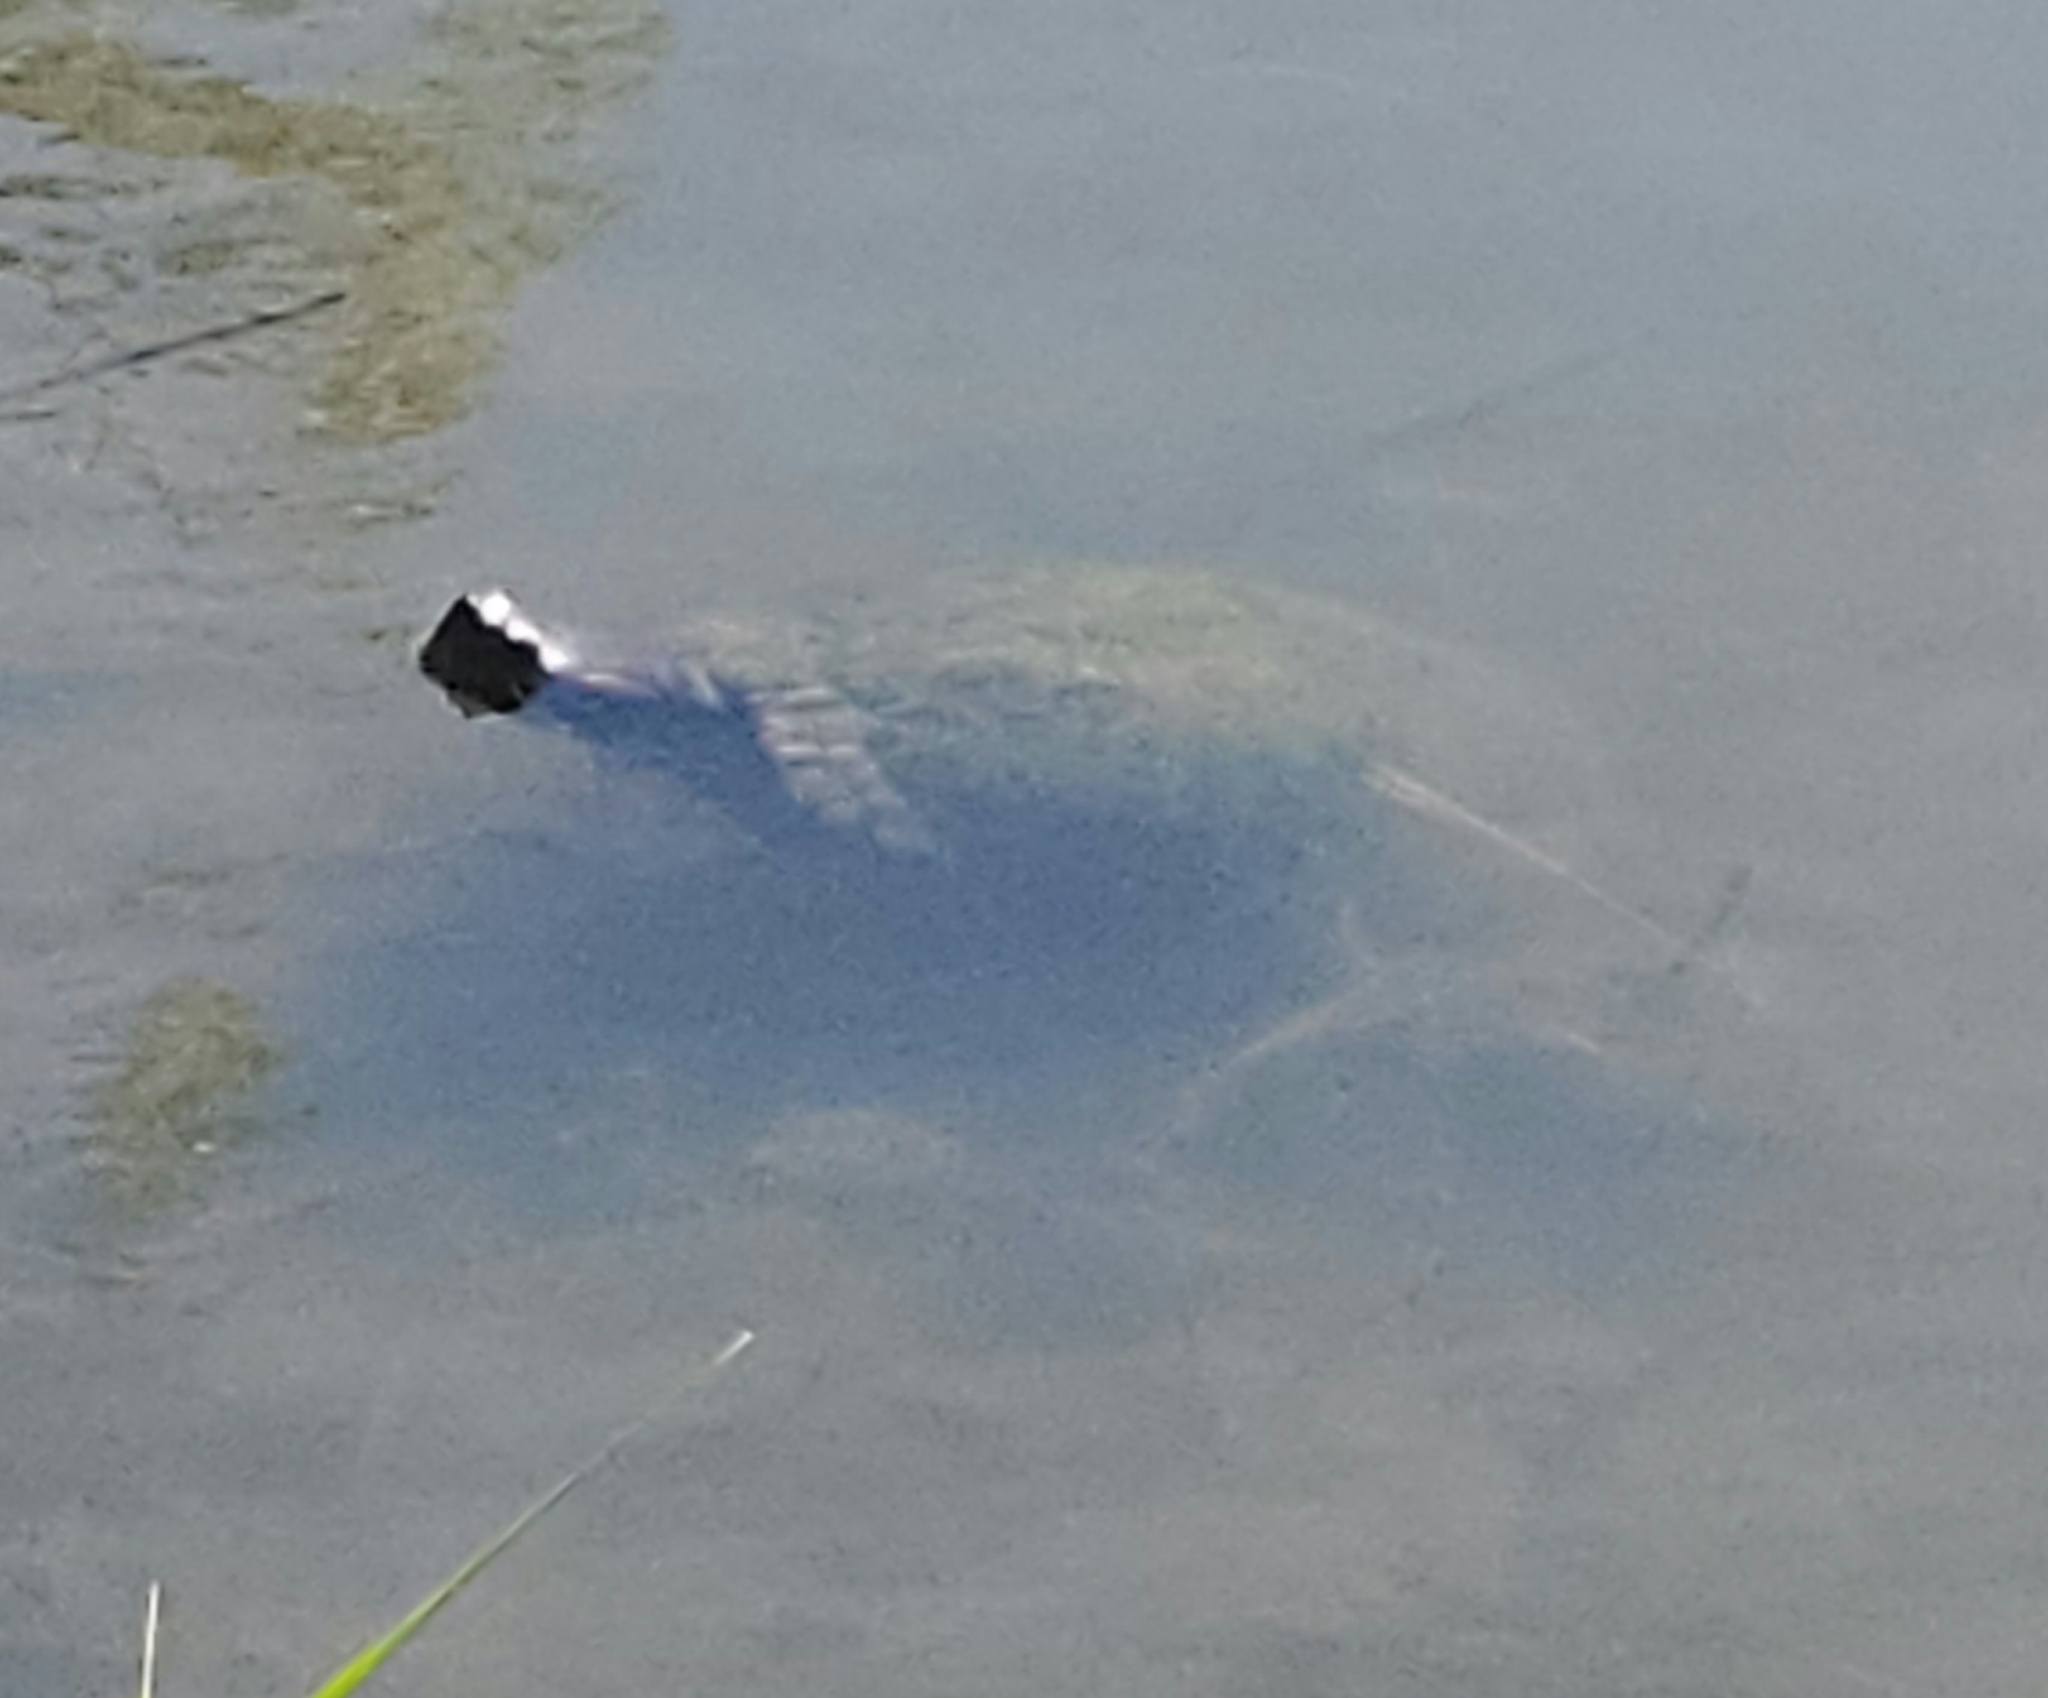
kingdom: Animalia
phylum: Chordata
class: Testudines
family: Emydidae
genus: Trachemys
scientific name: Trachemys scripta
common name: Slider
